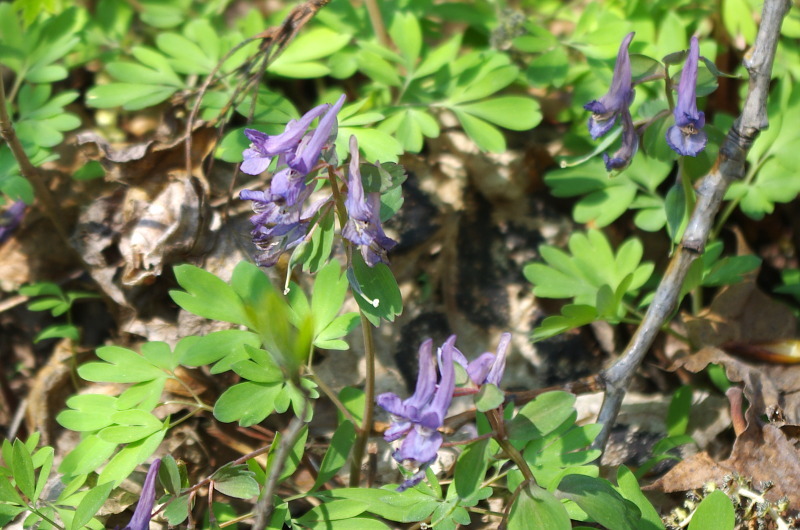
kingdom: Plantae
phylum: Tracheophyta
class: Magnoliopsida
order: Ranunculales
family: Papaveraceae
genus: Corydalis
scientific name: Corydalis solida
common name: Bird-in-a-bush
